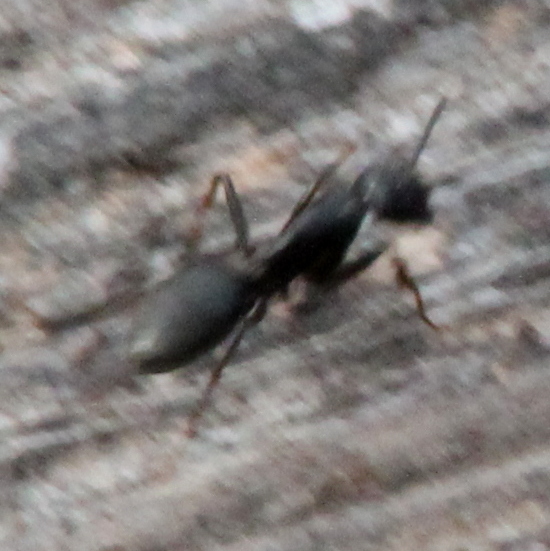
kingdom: Animalia
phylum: Arthropoda
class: Insecta
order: Hymenoptera
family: Formicidae
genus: Camponotus
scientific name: Camponotus pennsylvanicus
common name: Black carpenter ant
